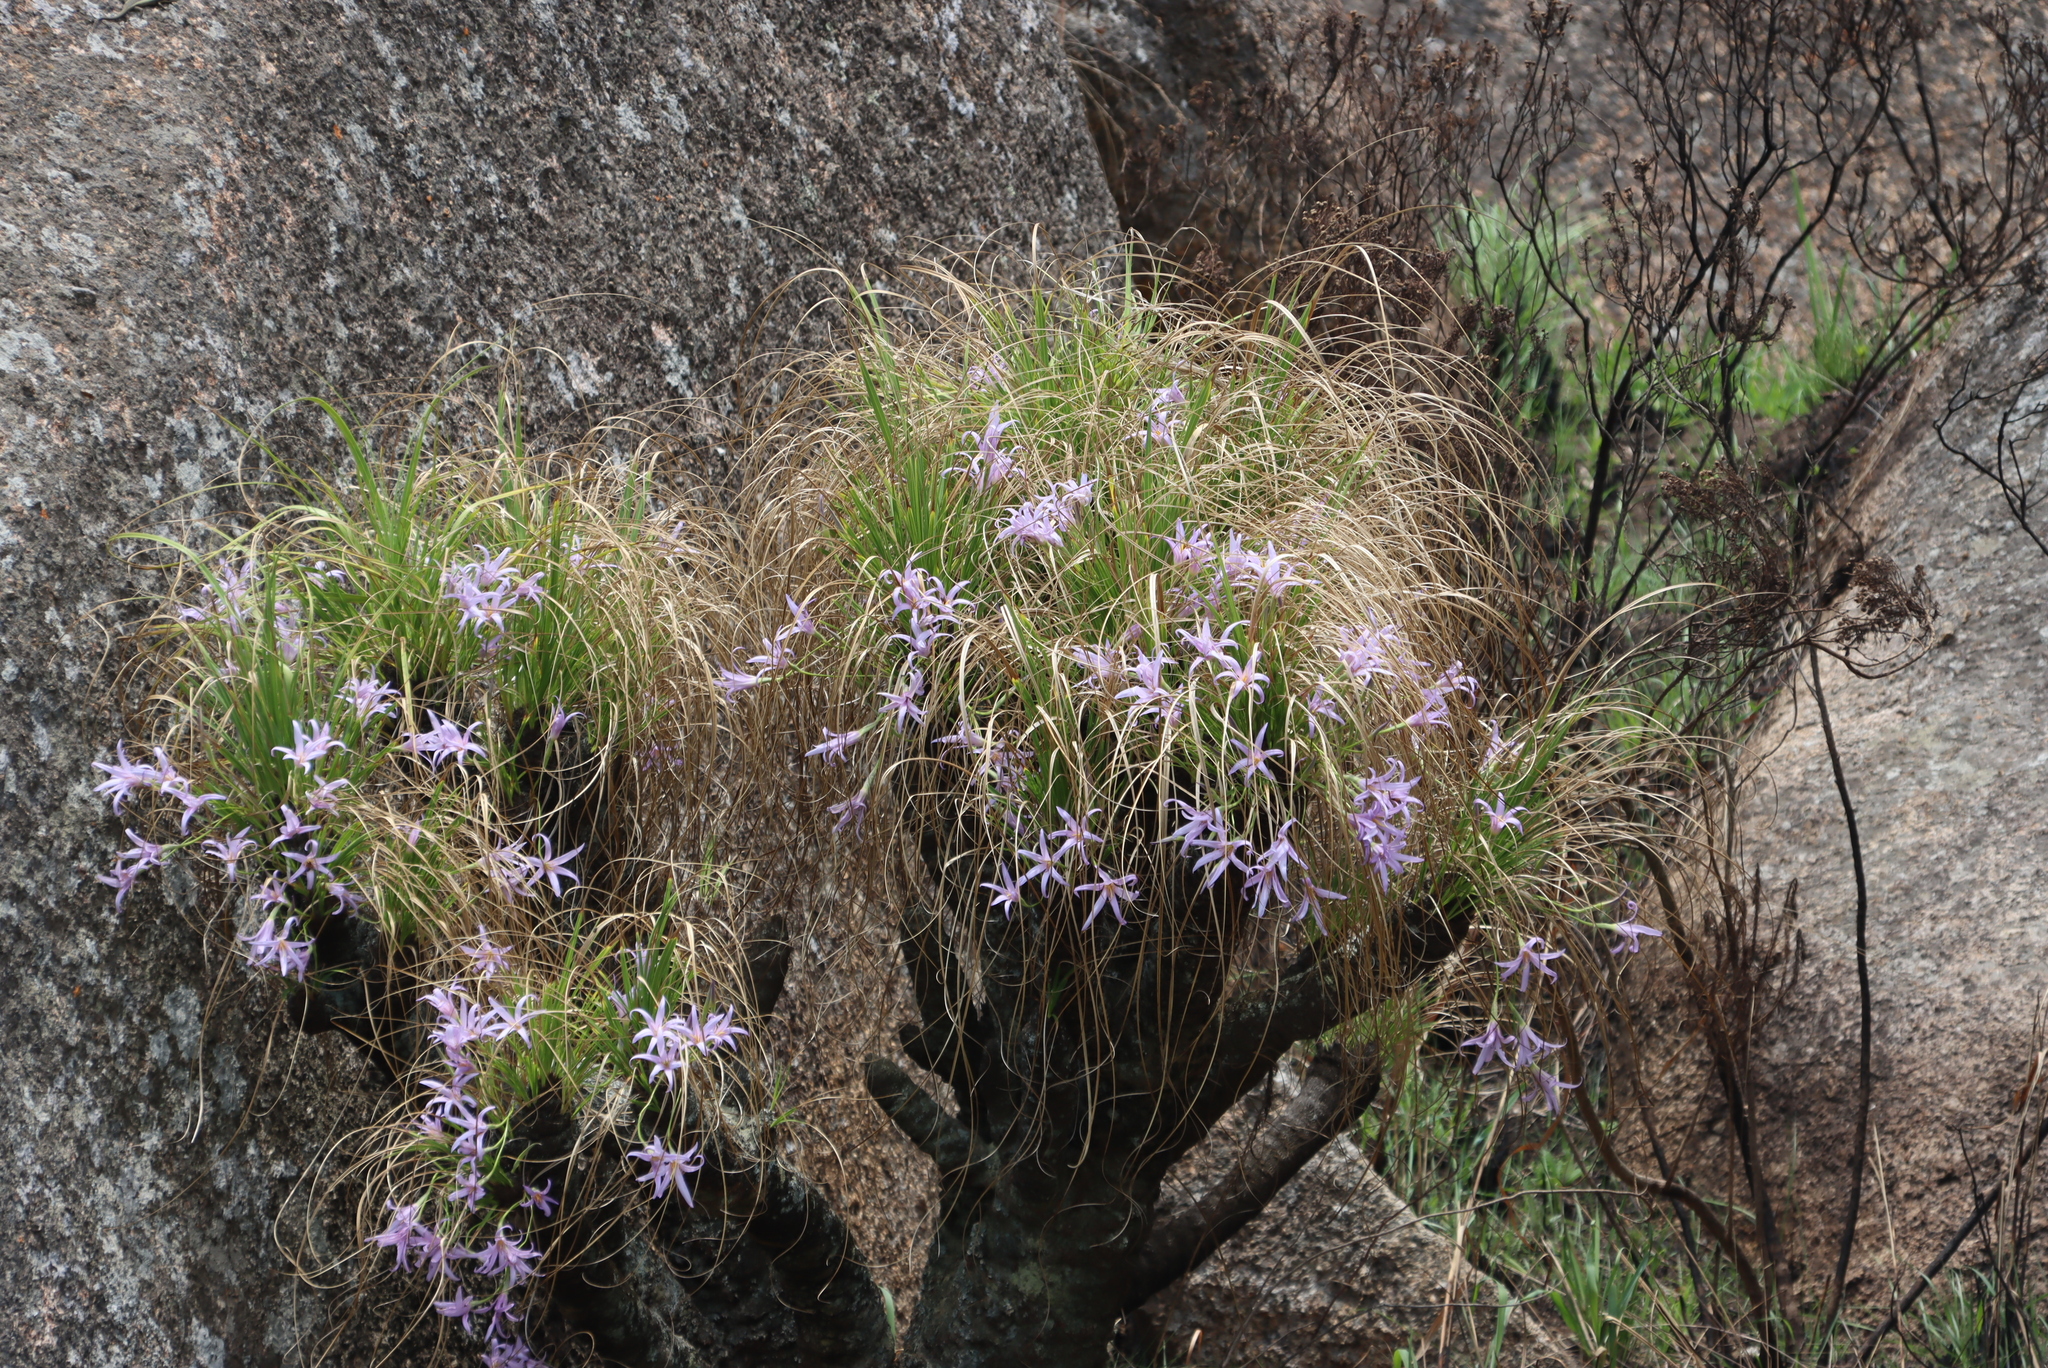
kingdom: Plantae
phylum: Tracheophyta
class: Liliopsida
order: Pandanales
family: Velloziaceae
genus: Xerophyta
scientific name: Xerophyta retinervis
